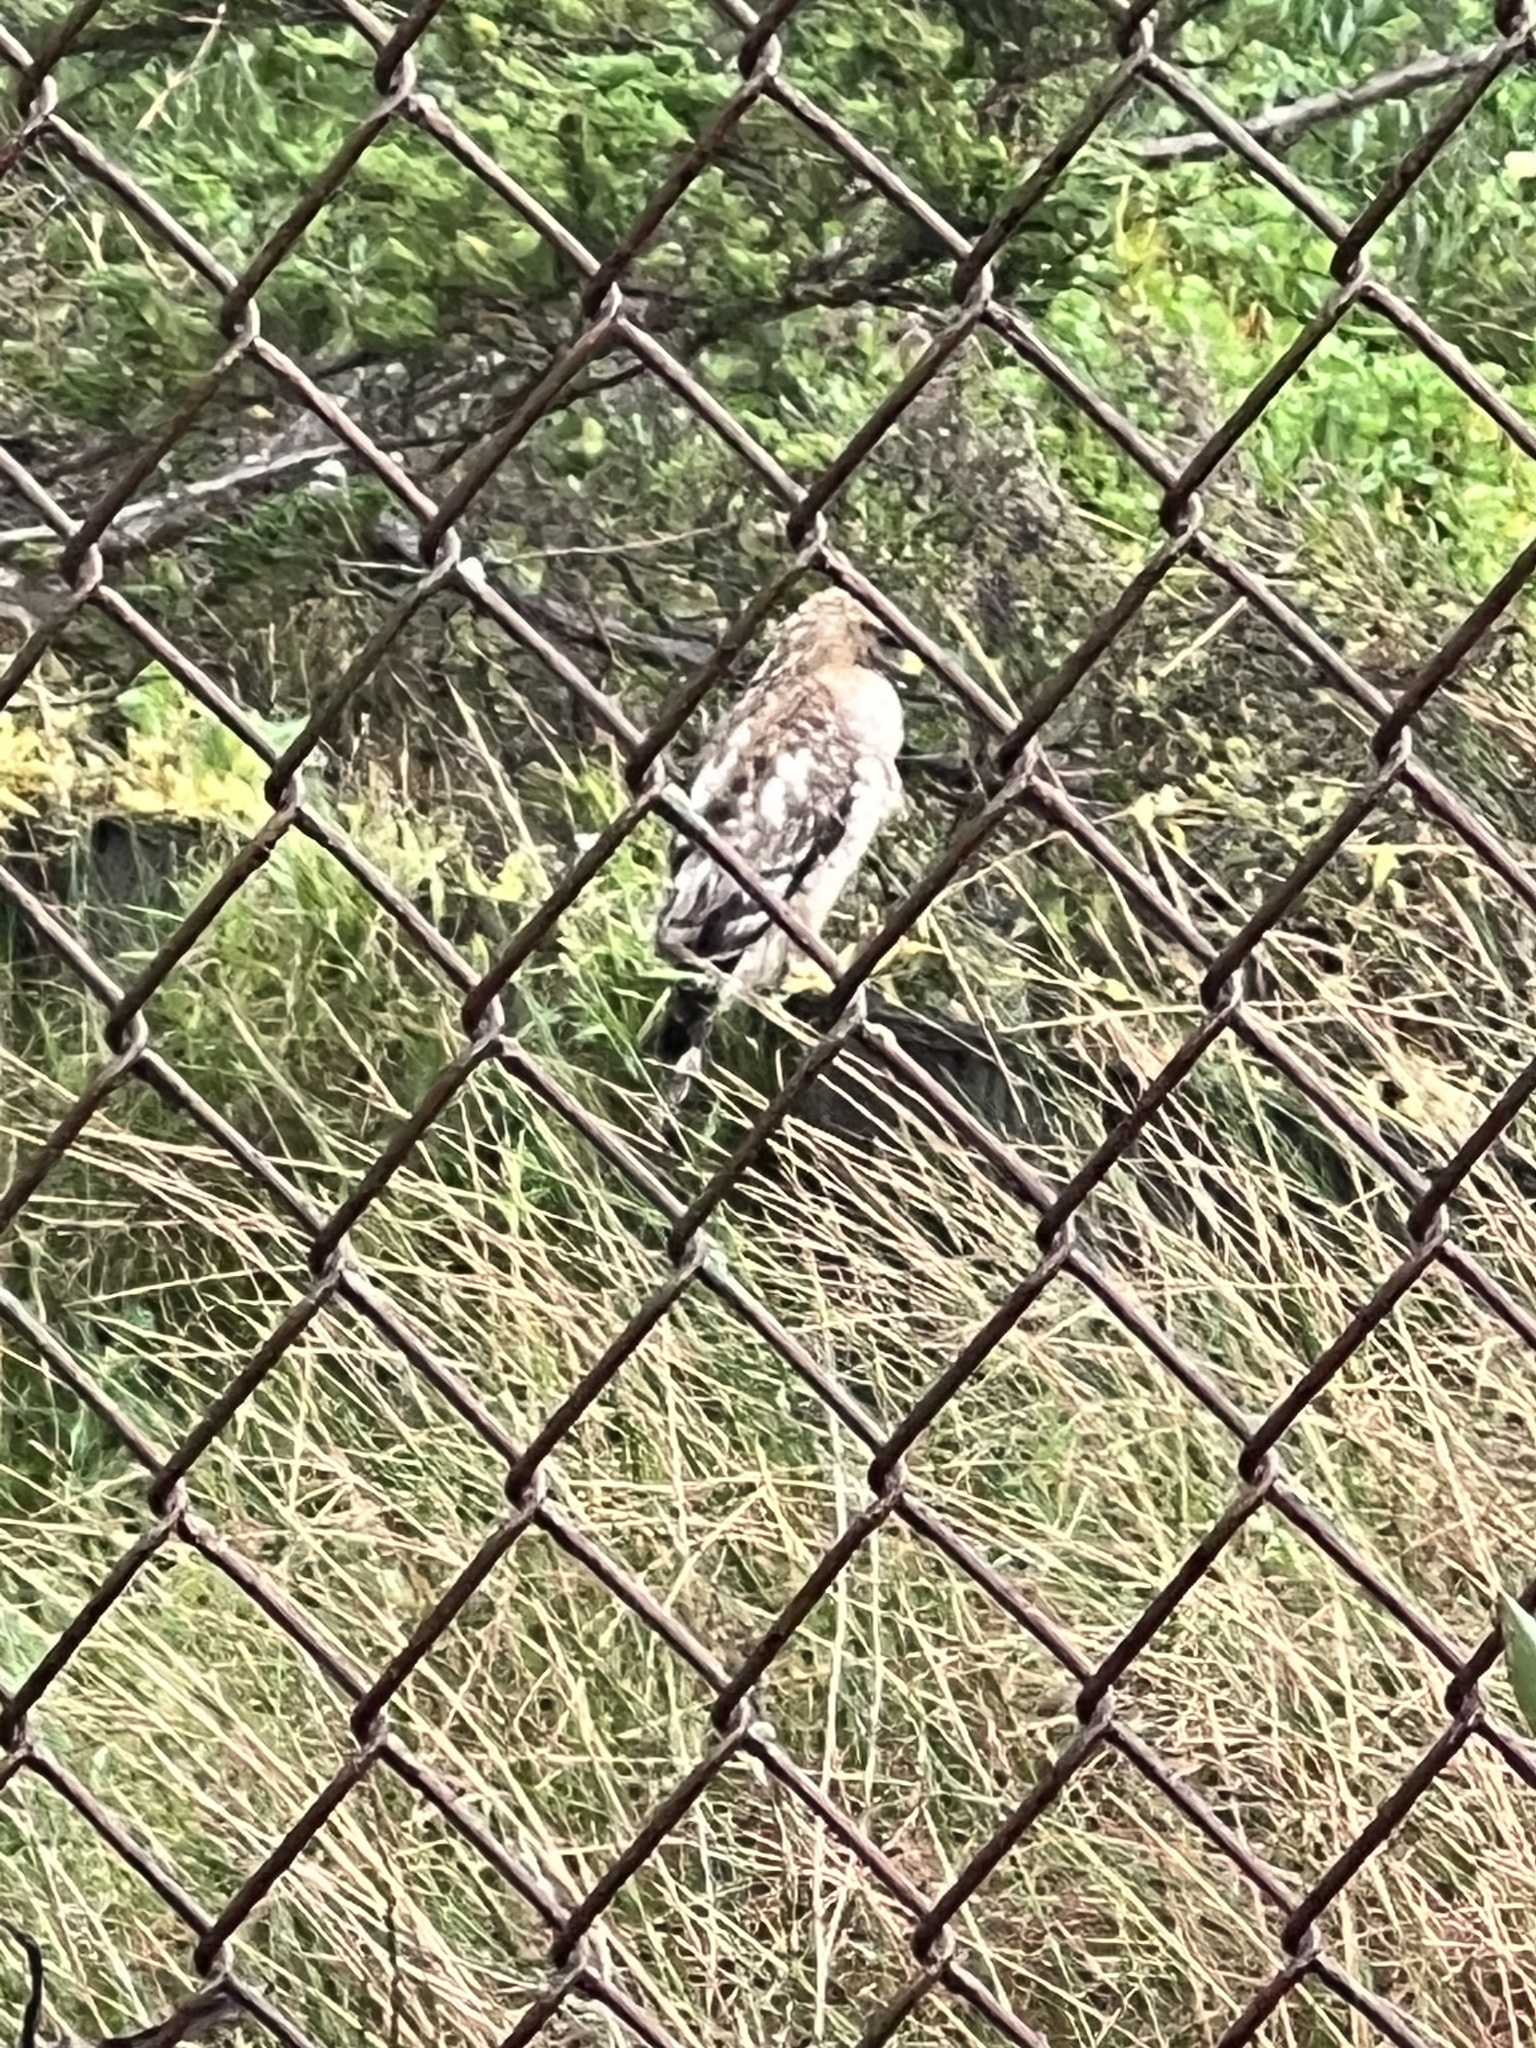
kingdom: Animalia
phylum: Chordata
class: Aves
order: Accipitriformes
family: Accipitridae
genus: Buteo
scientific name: Buteo lineatus
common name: Red-shouldered hawk
